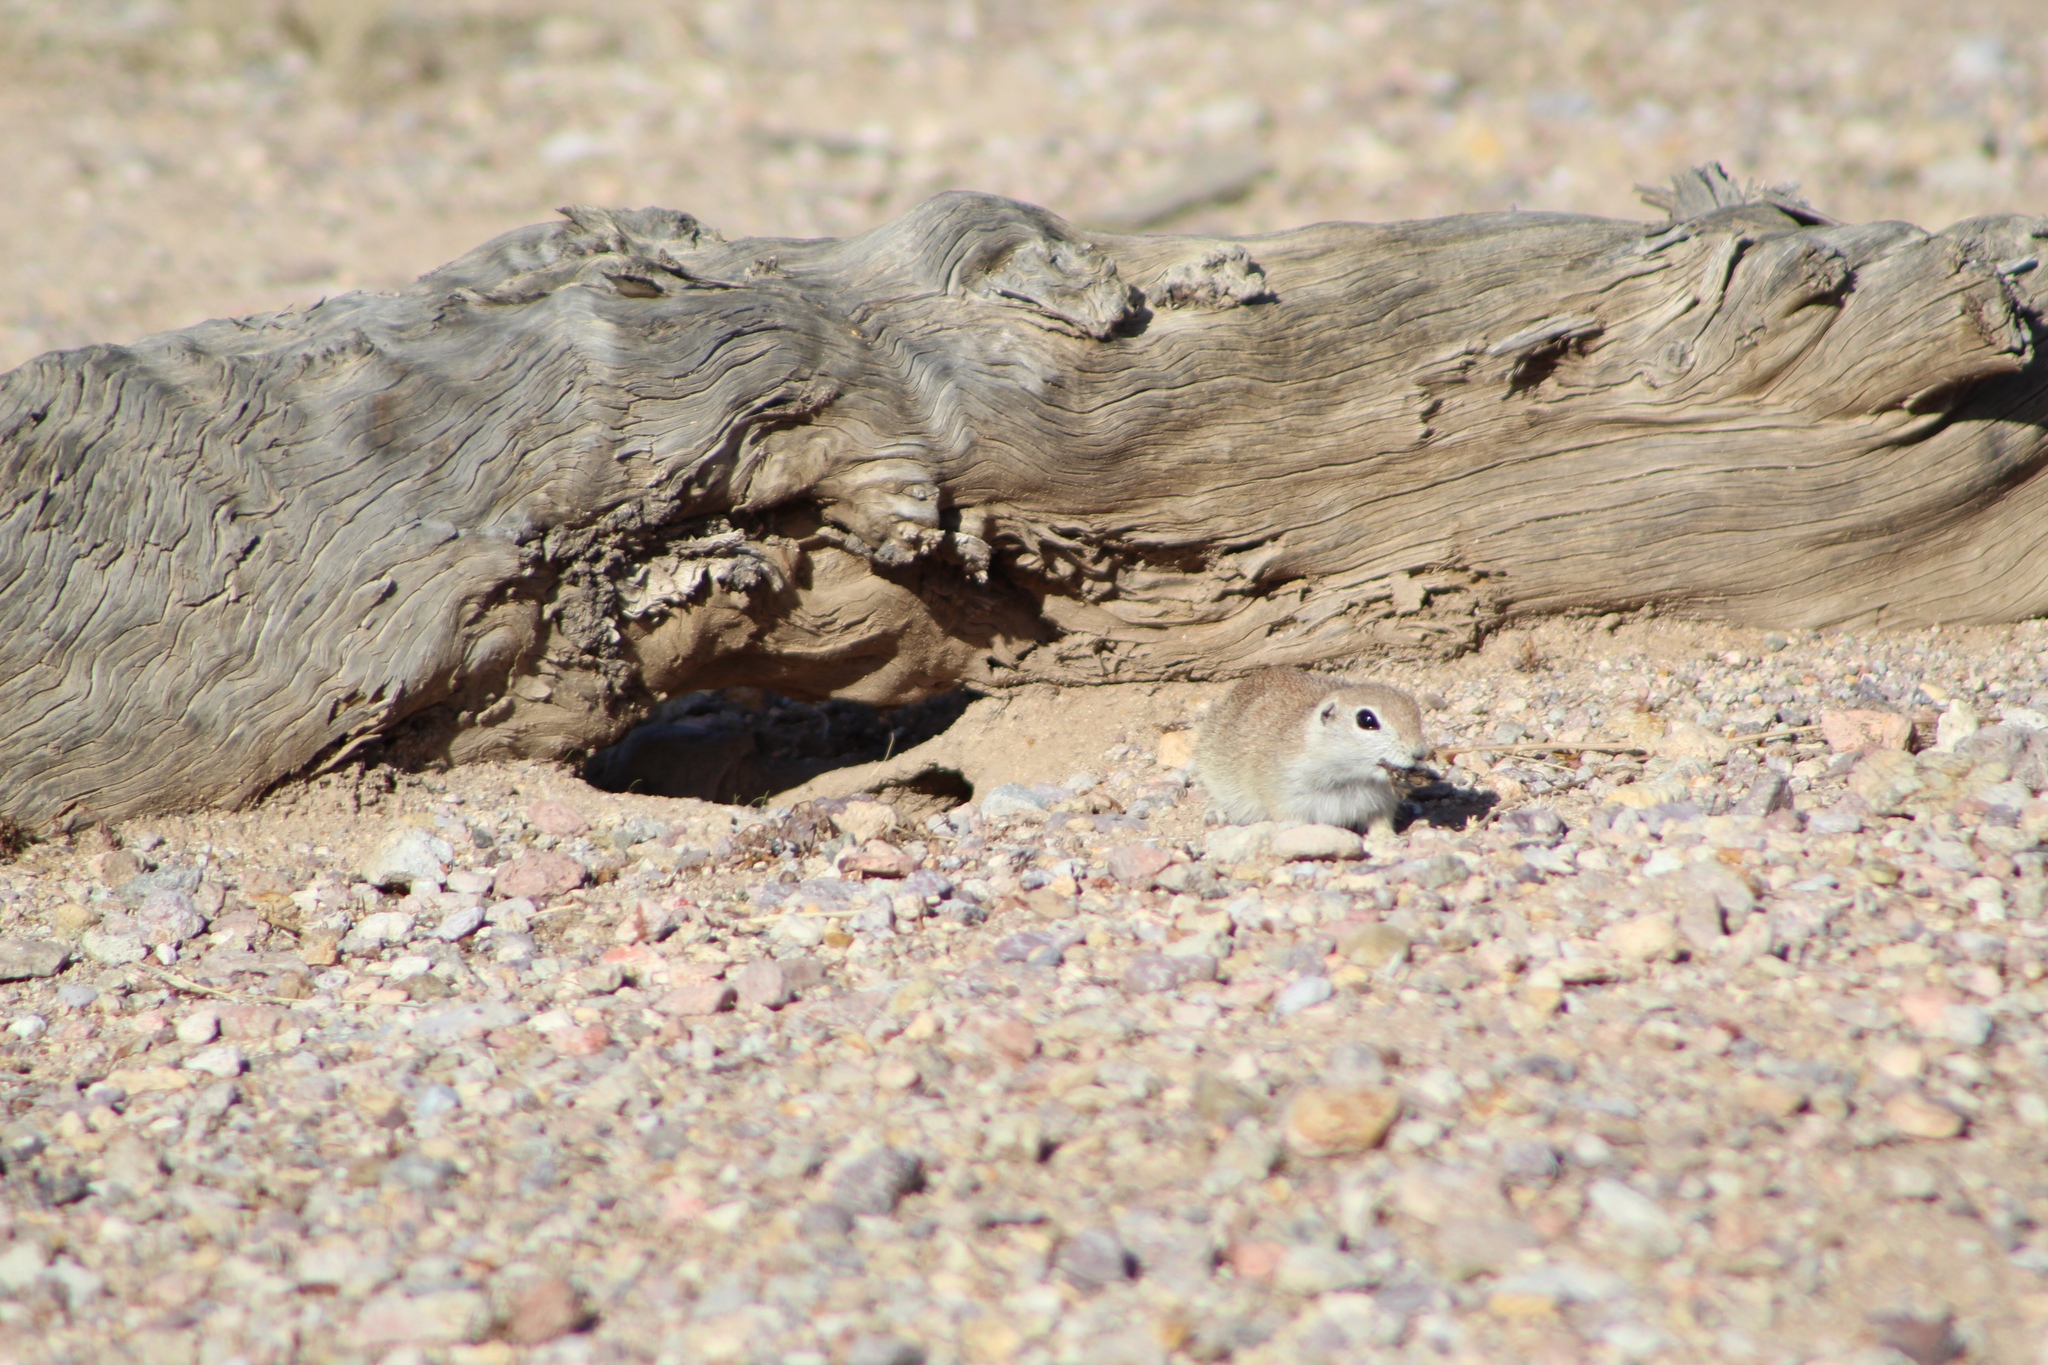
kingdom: Animalia
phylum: Chordata
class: Mammalia
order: Rodentia
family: Sciuridae
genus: Xerospermophilus
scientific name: Xerospermophilus tereticaudus
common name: Round-tailed ground squirrel
